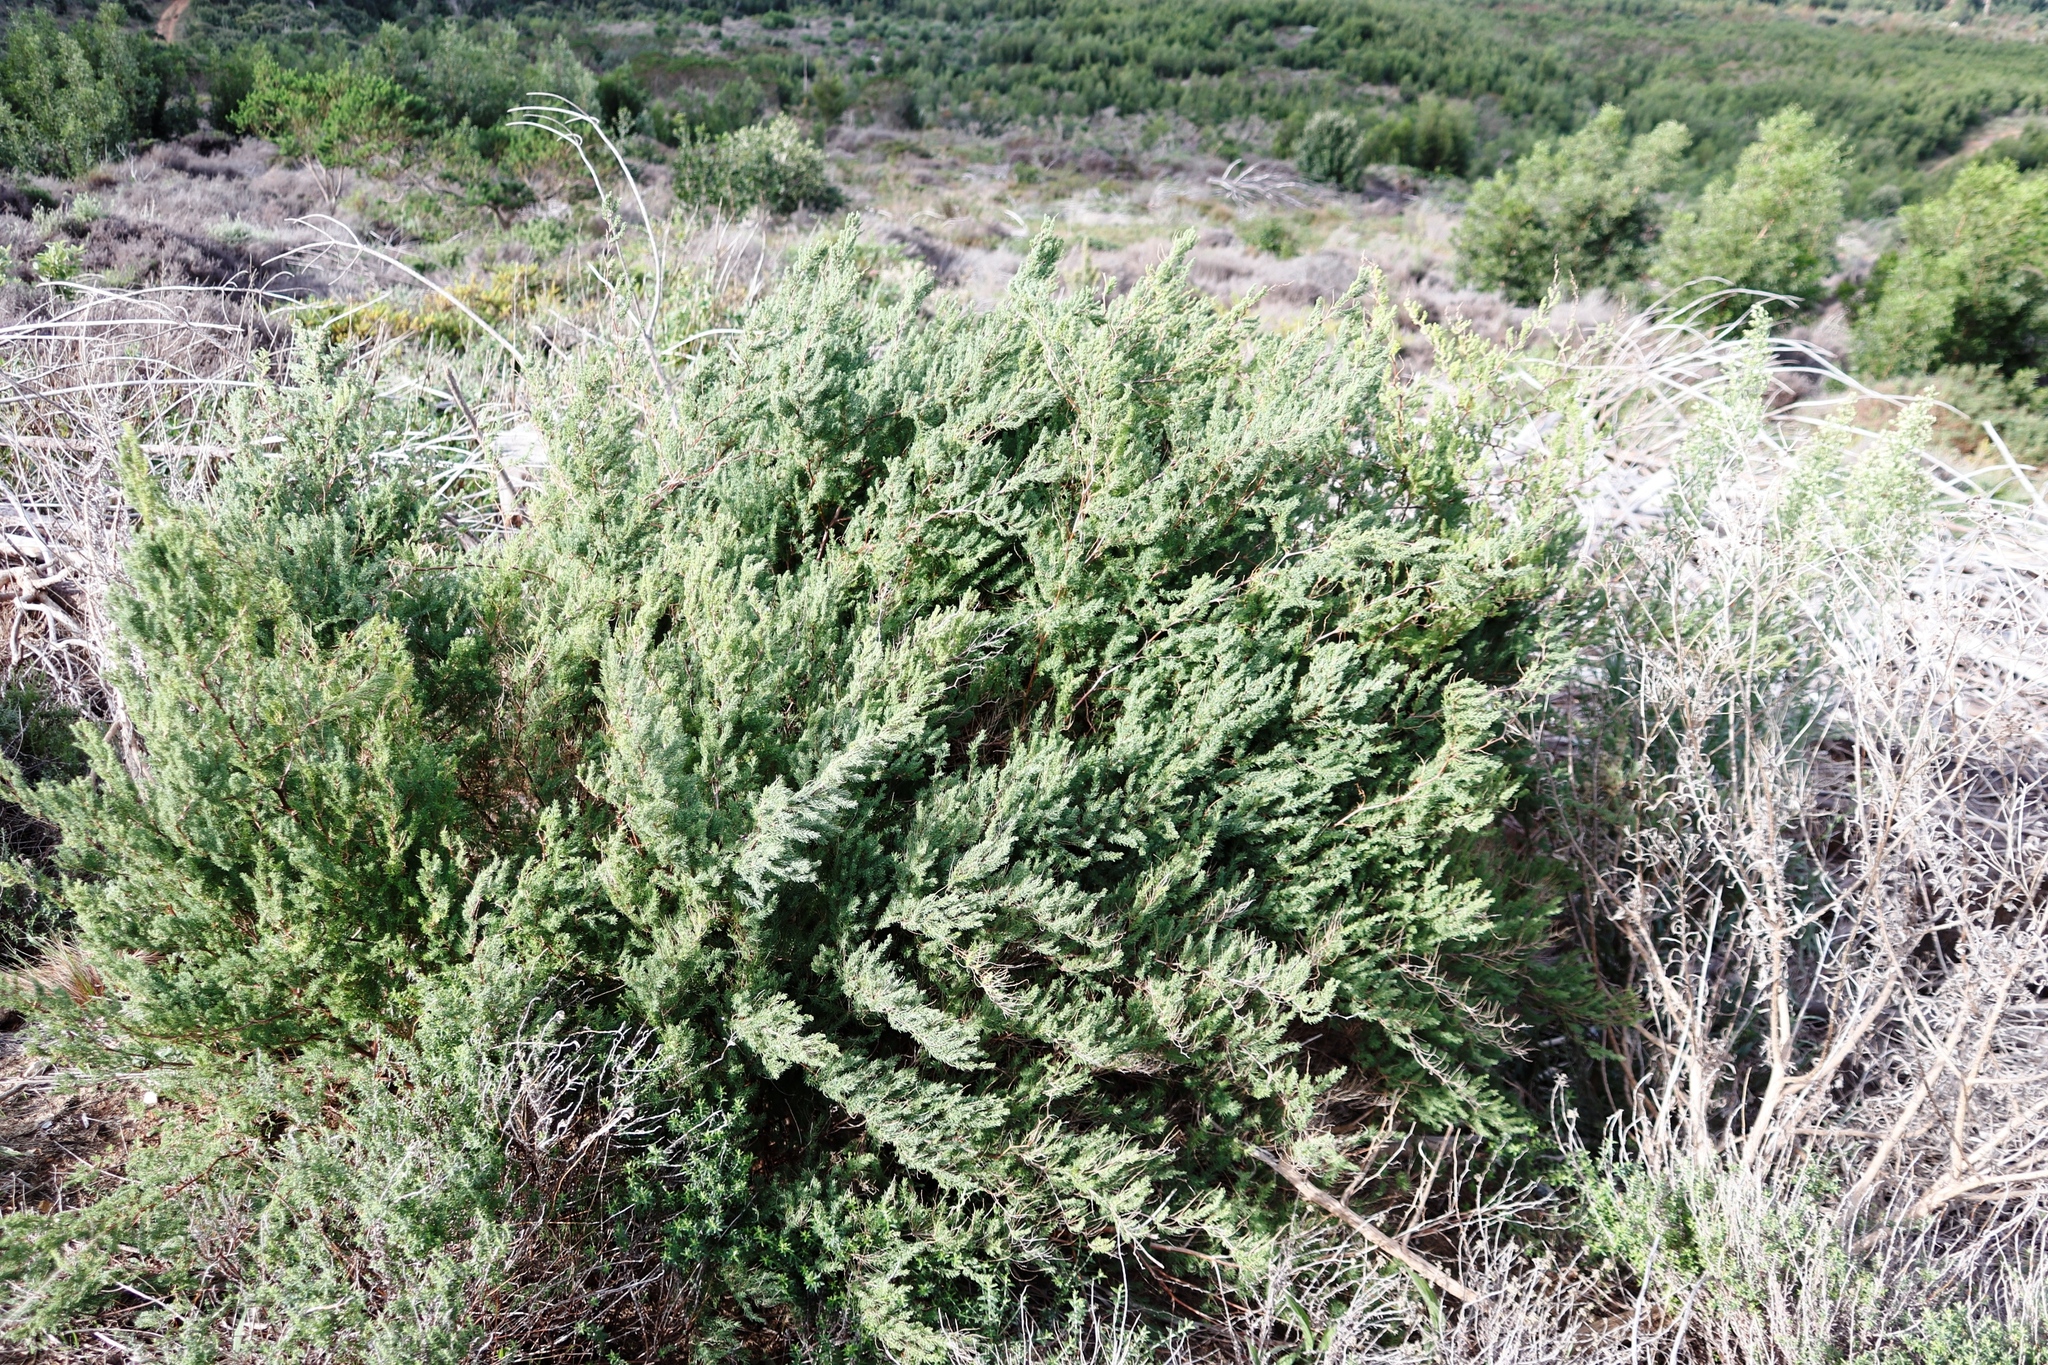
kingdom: Plantae
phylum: Tracheophyta
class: Liliopsida
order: Asparagales
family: Asparagaceae
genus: Asparagus
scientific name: Asparagus rubicundus
